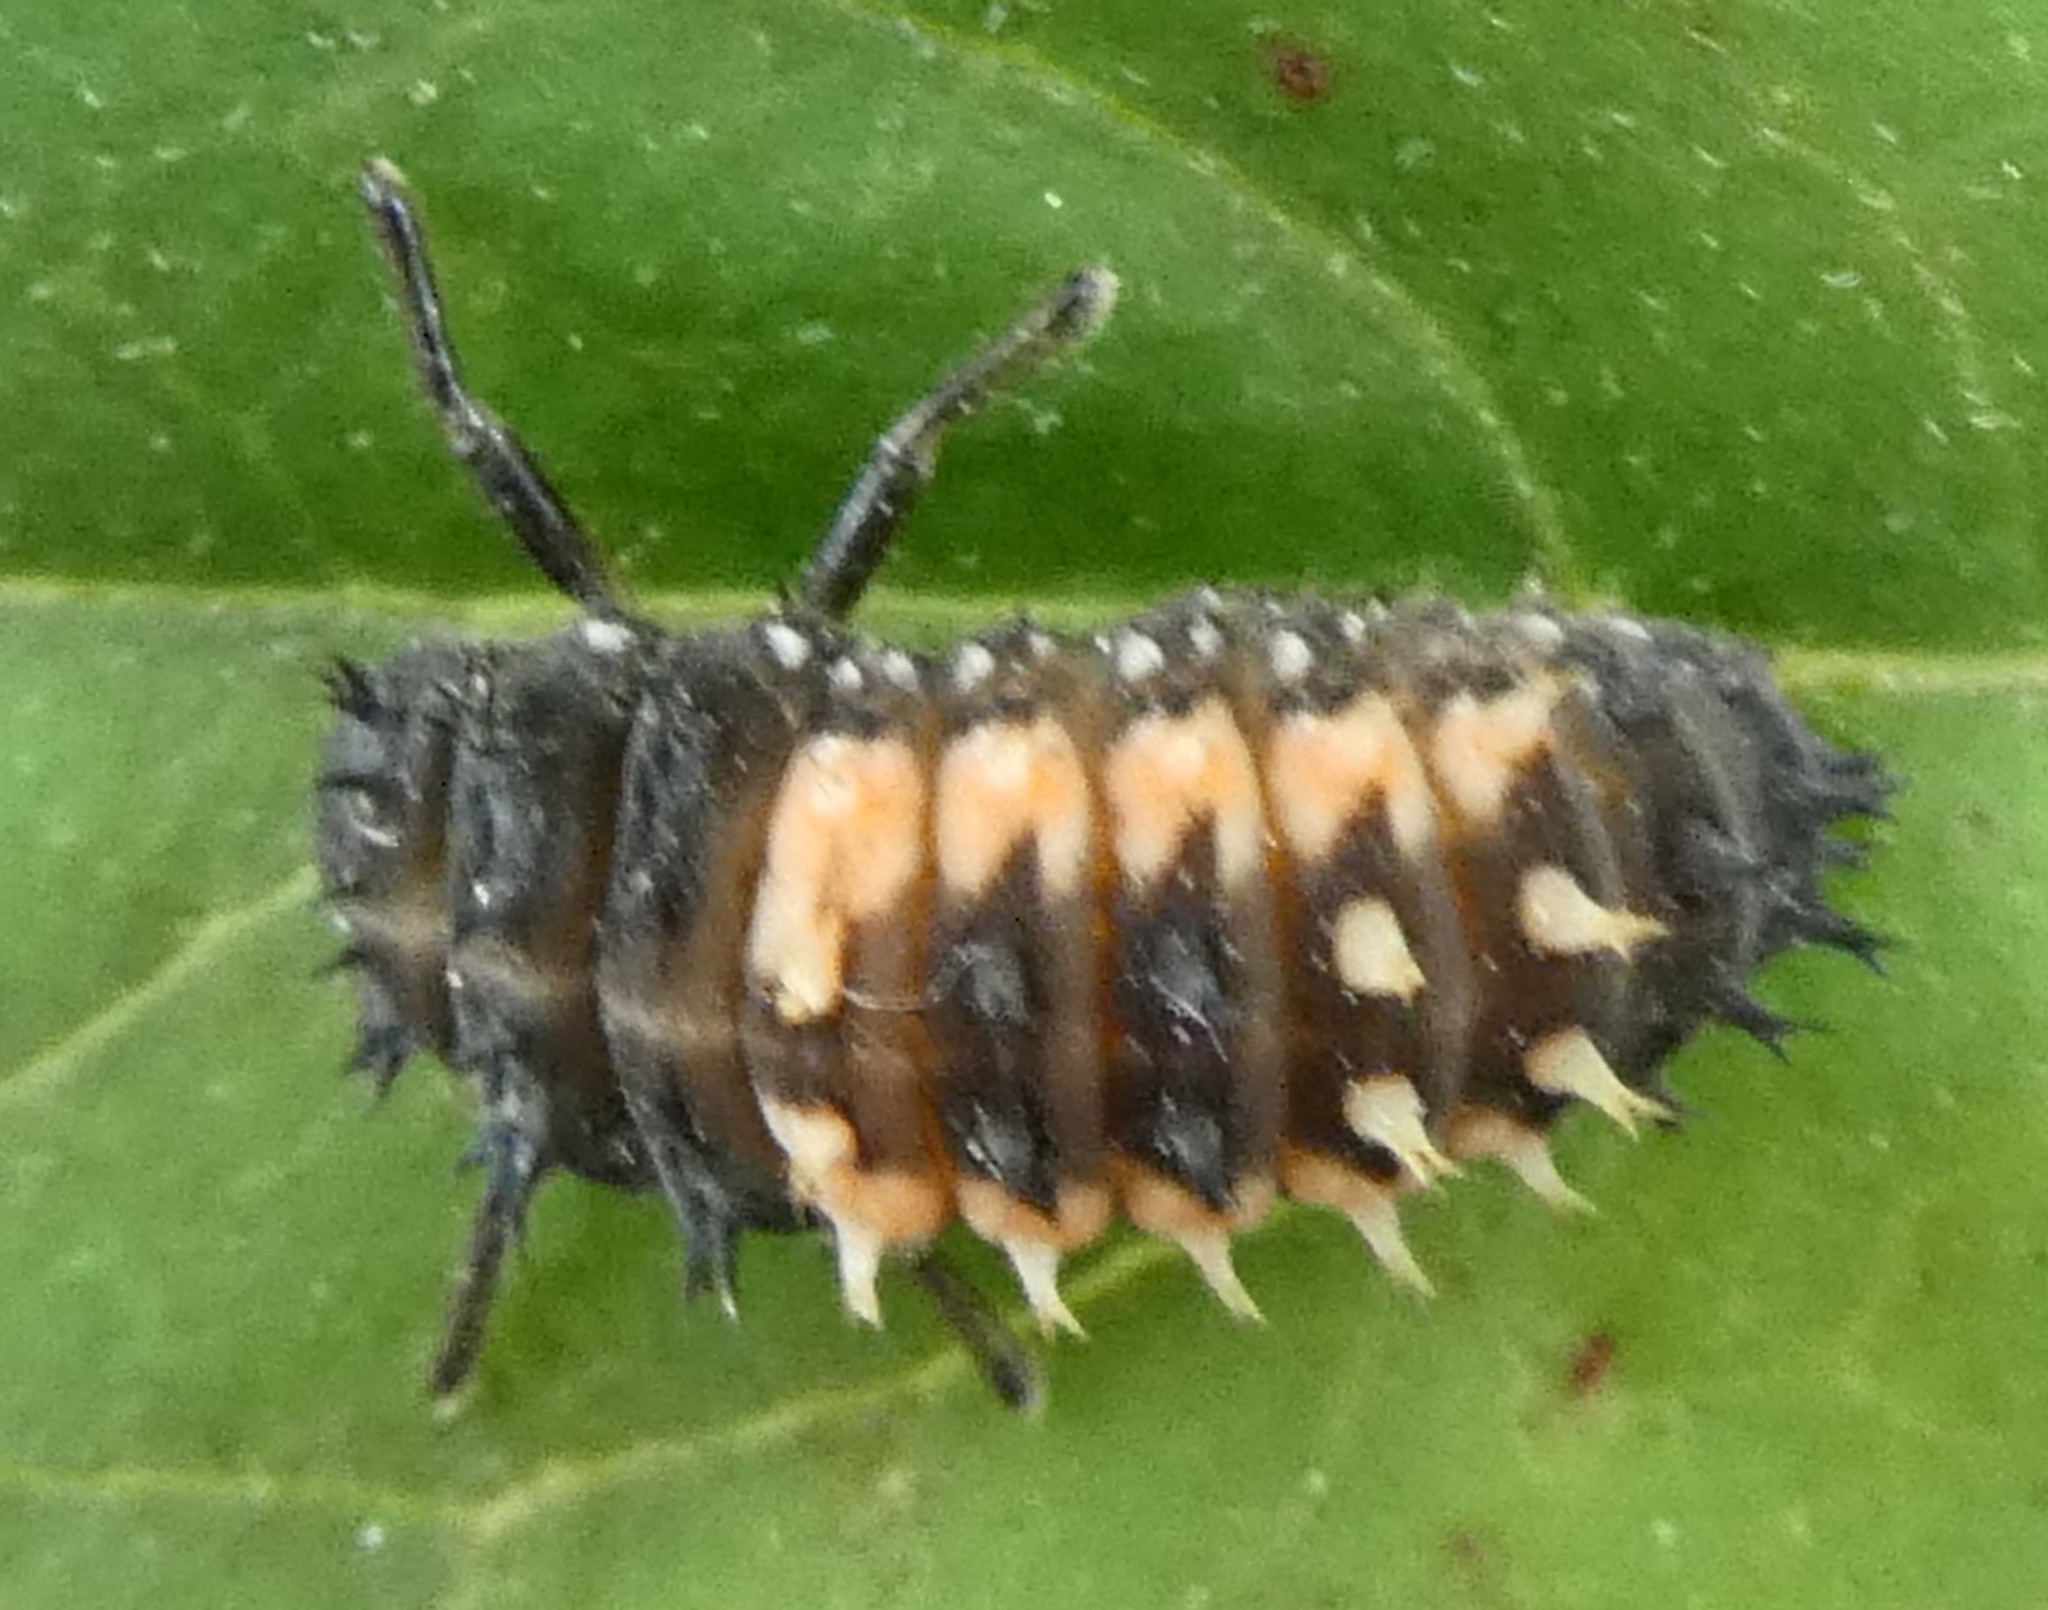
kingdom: Animalia
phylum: Arthropoda
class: Insecta
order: Coleoptera
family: Coccinellidae
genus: Harmonia
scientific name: Harmonia axyridis
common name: Harlequin ladybird
